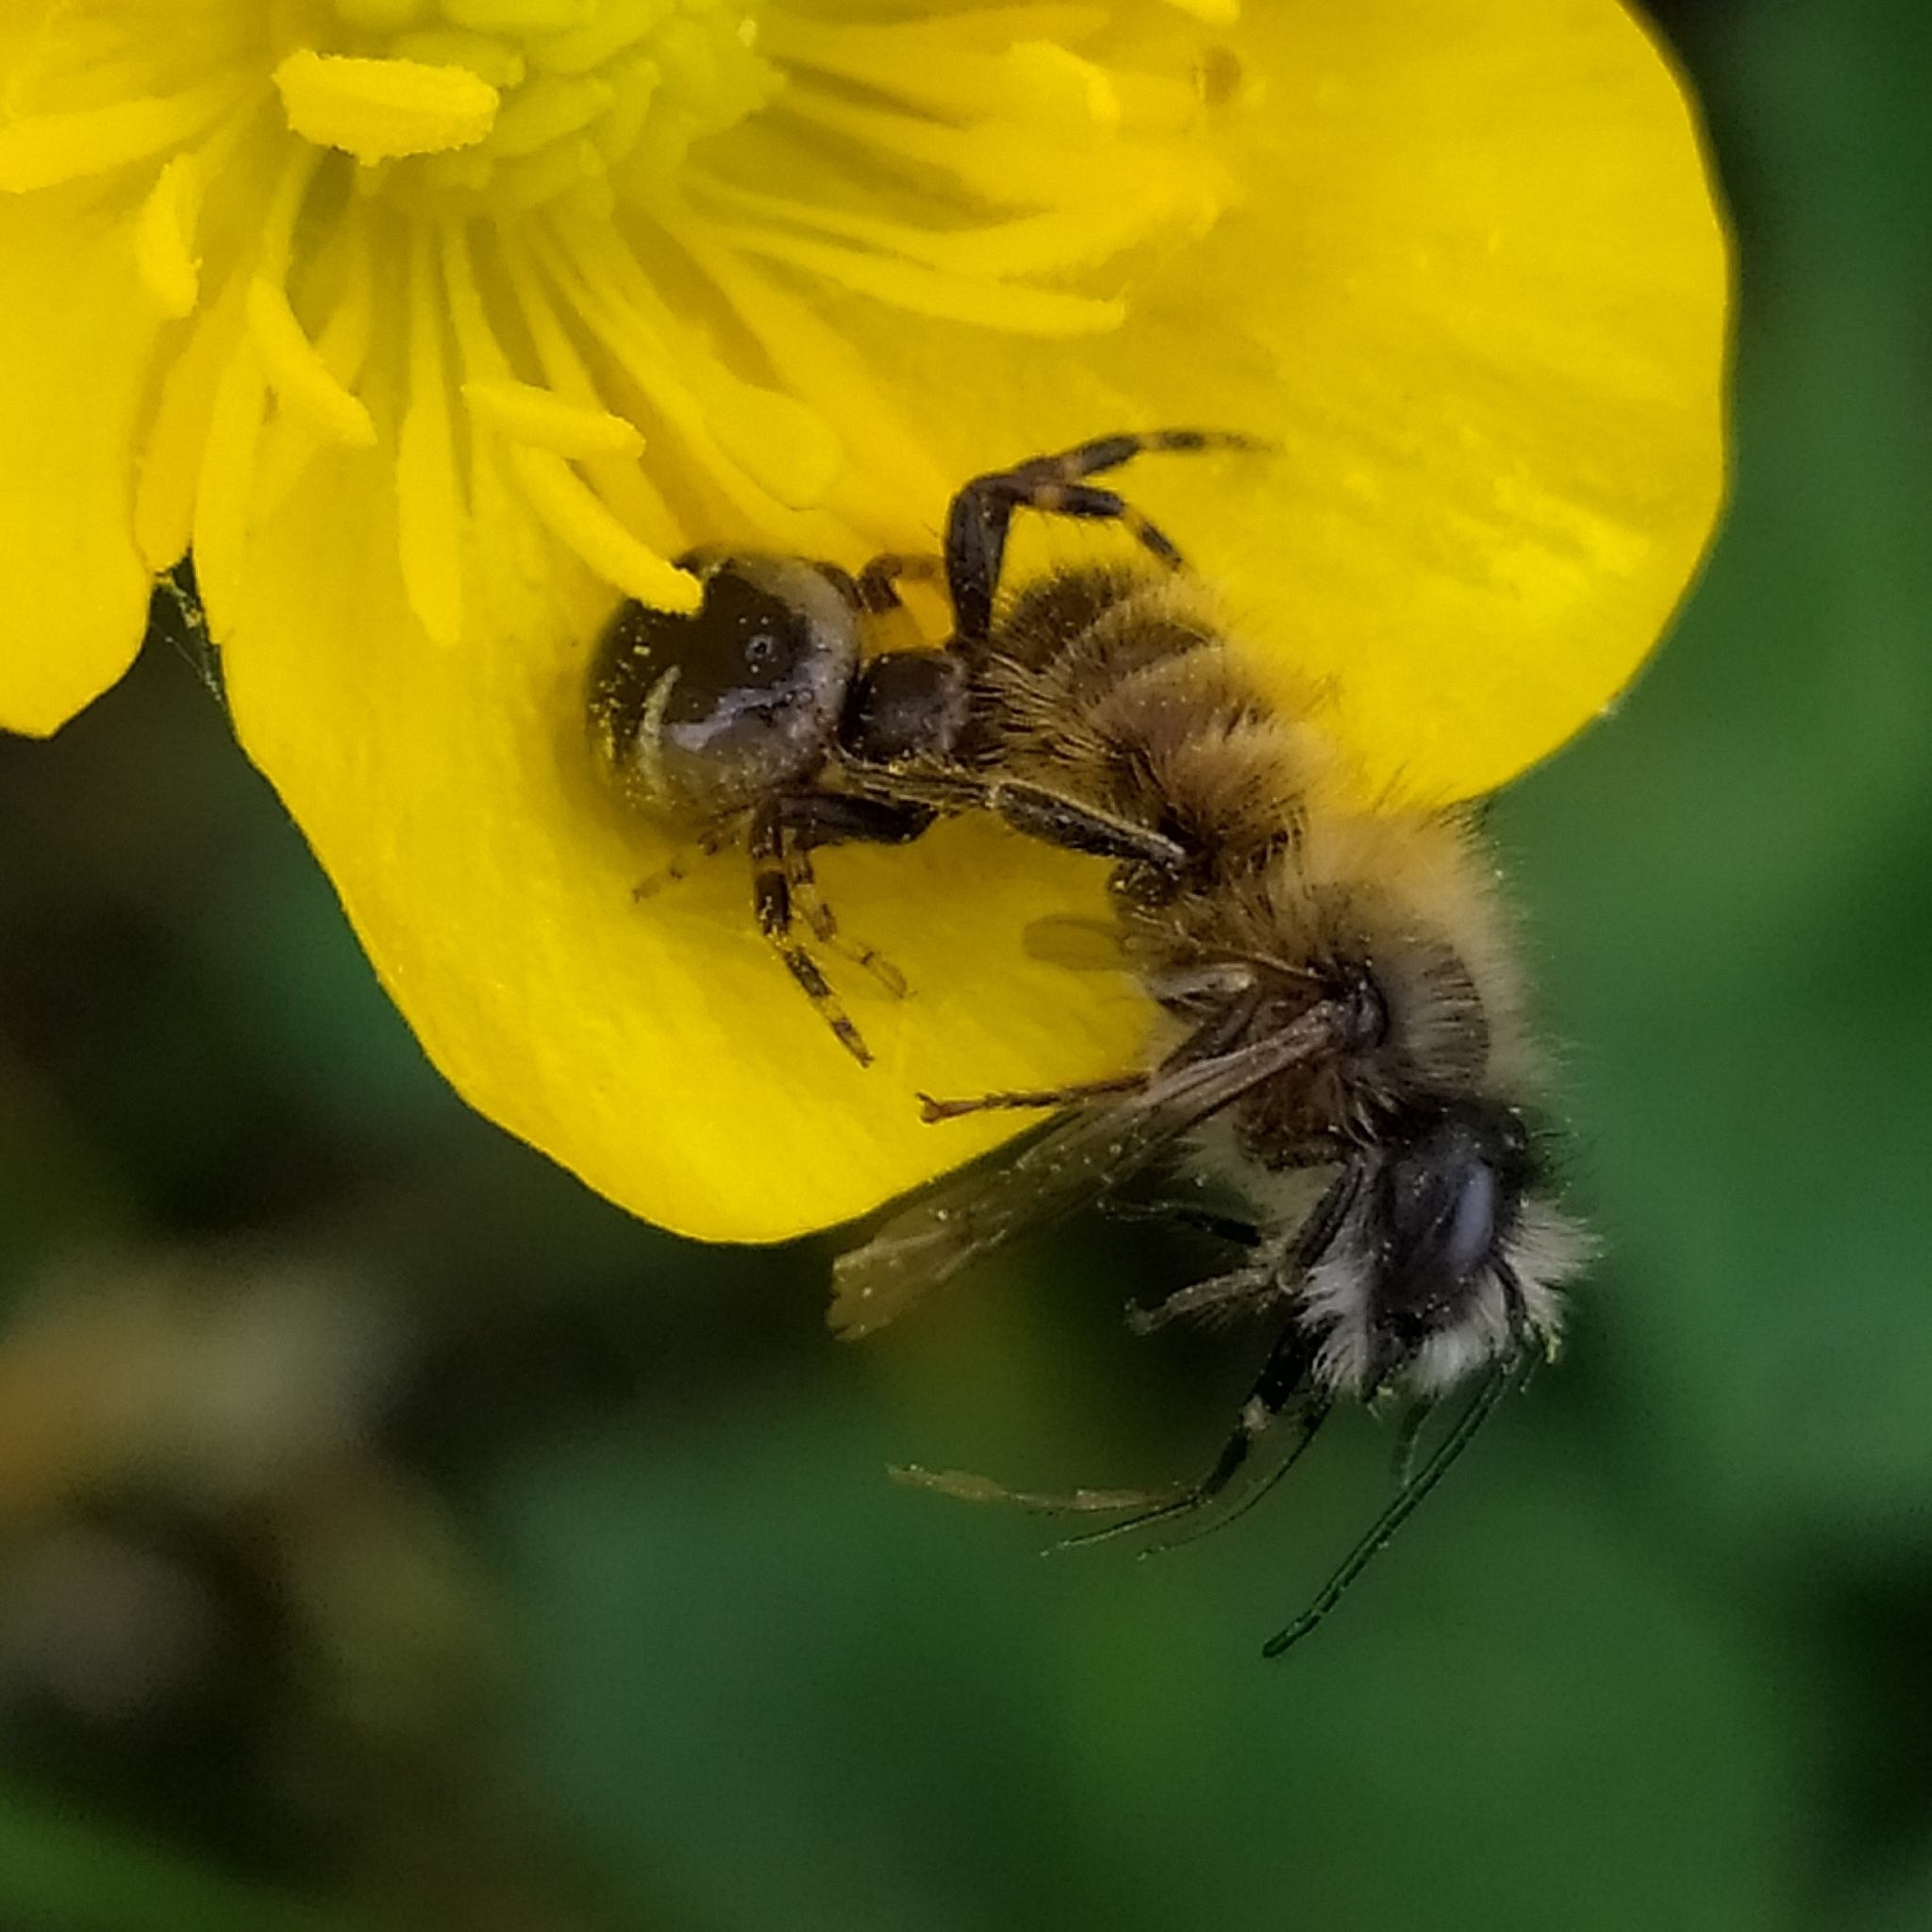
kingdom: Animalia
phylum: Arthropoda
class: Arachnida
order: Araneae
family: Thomisidae
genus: Synema
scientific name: Synema globosum
